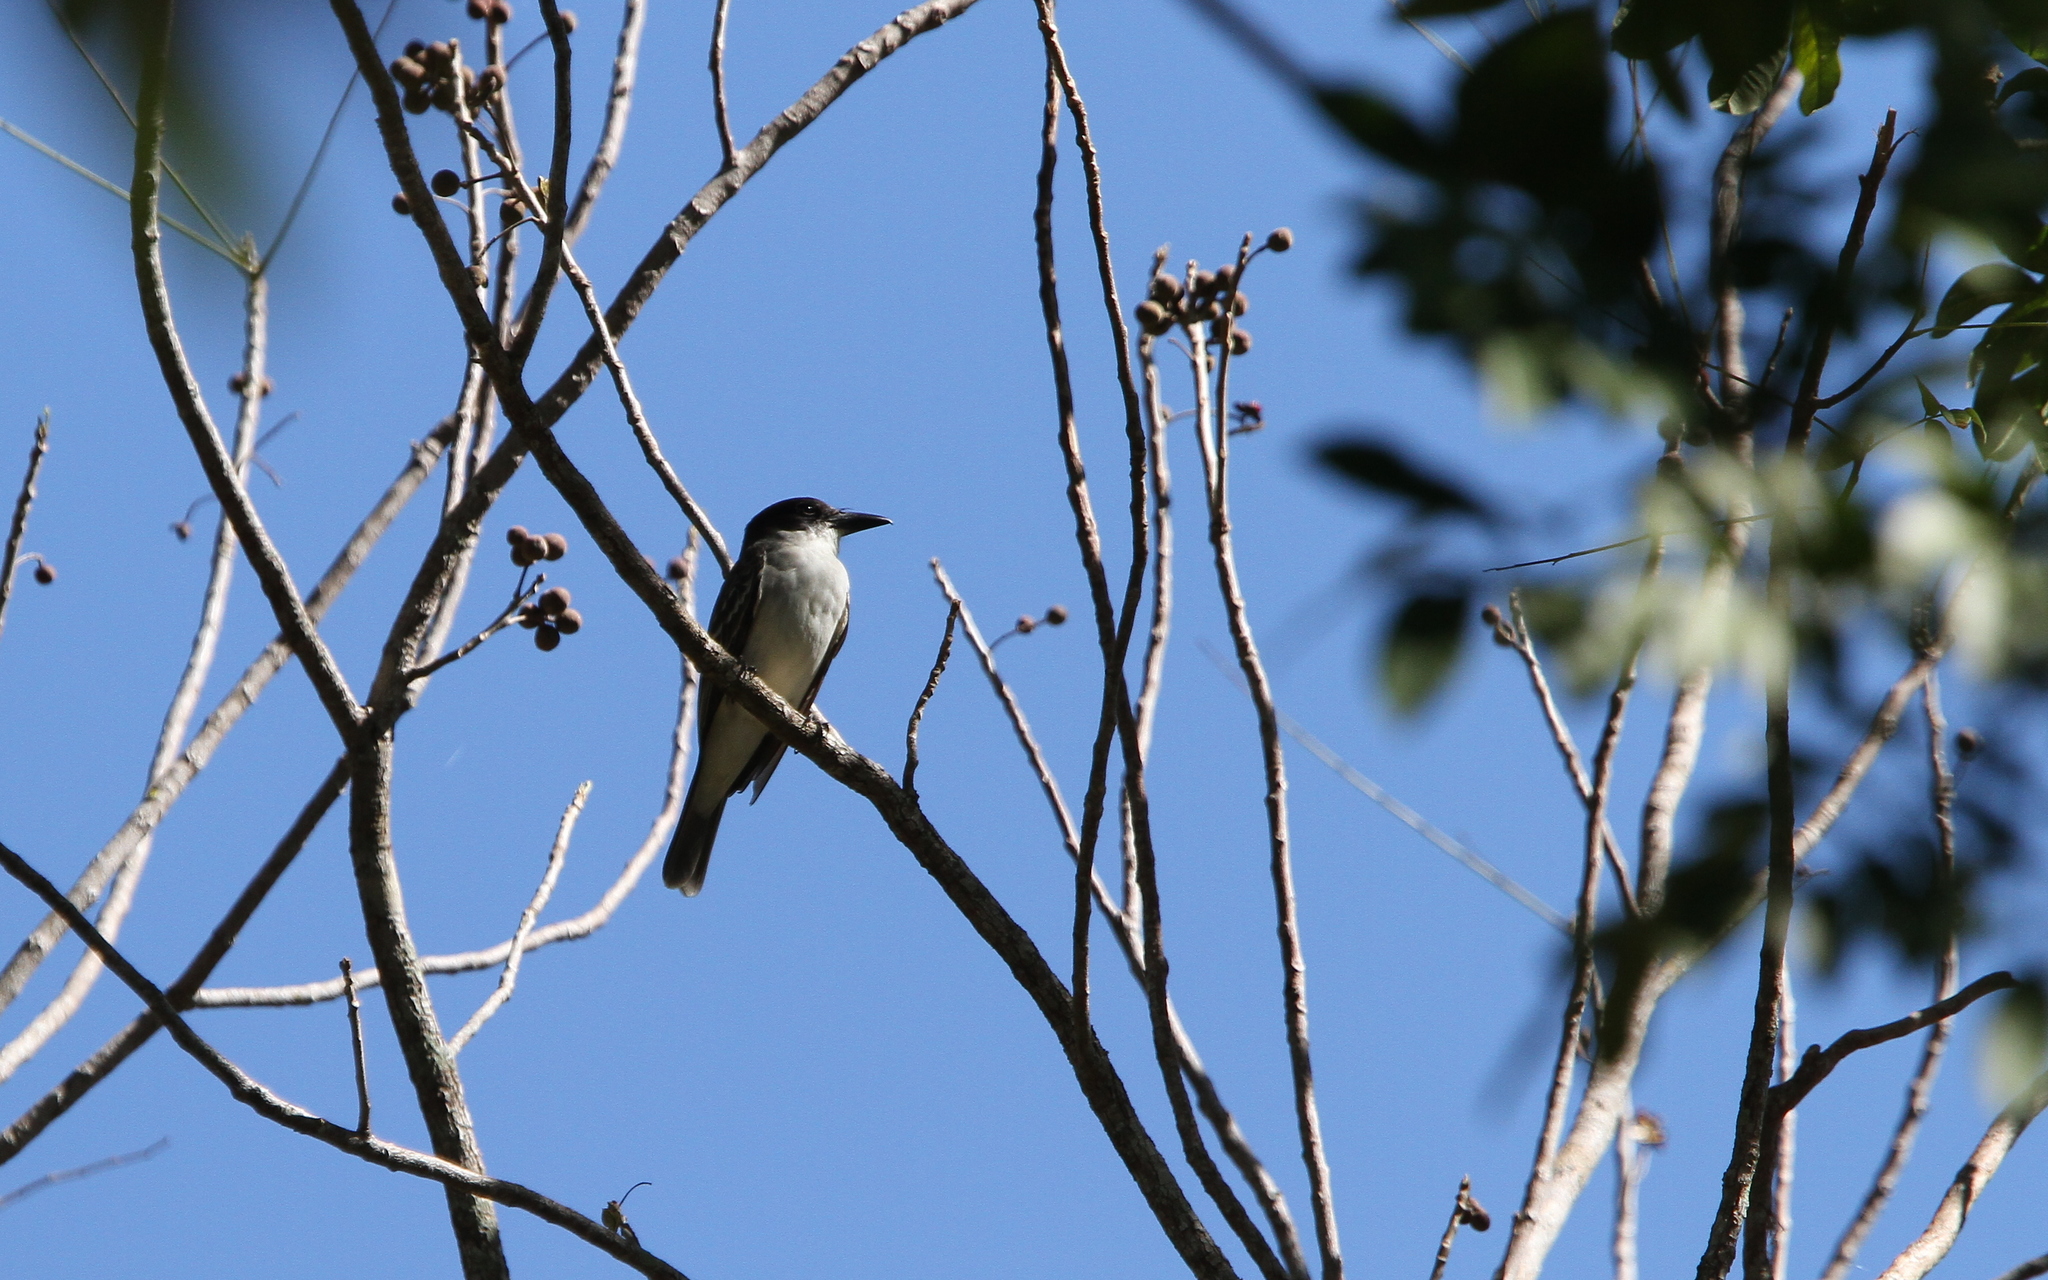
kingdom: Animalia
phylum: Chordata
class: Aves
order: Passeriformes
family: Tyrannidae
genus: Tyrannus
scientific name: Tyrannus cubensis
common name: Giant kingbird
